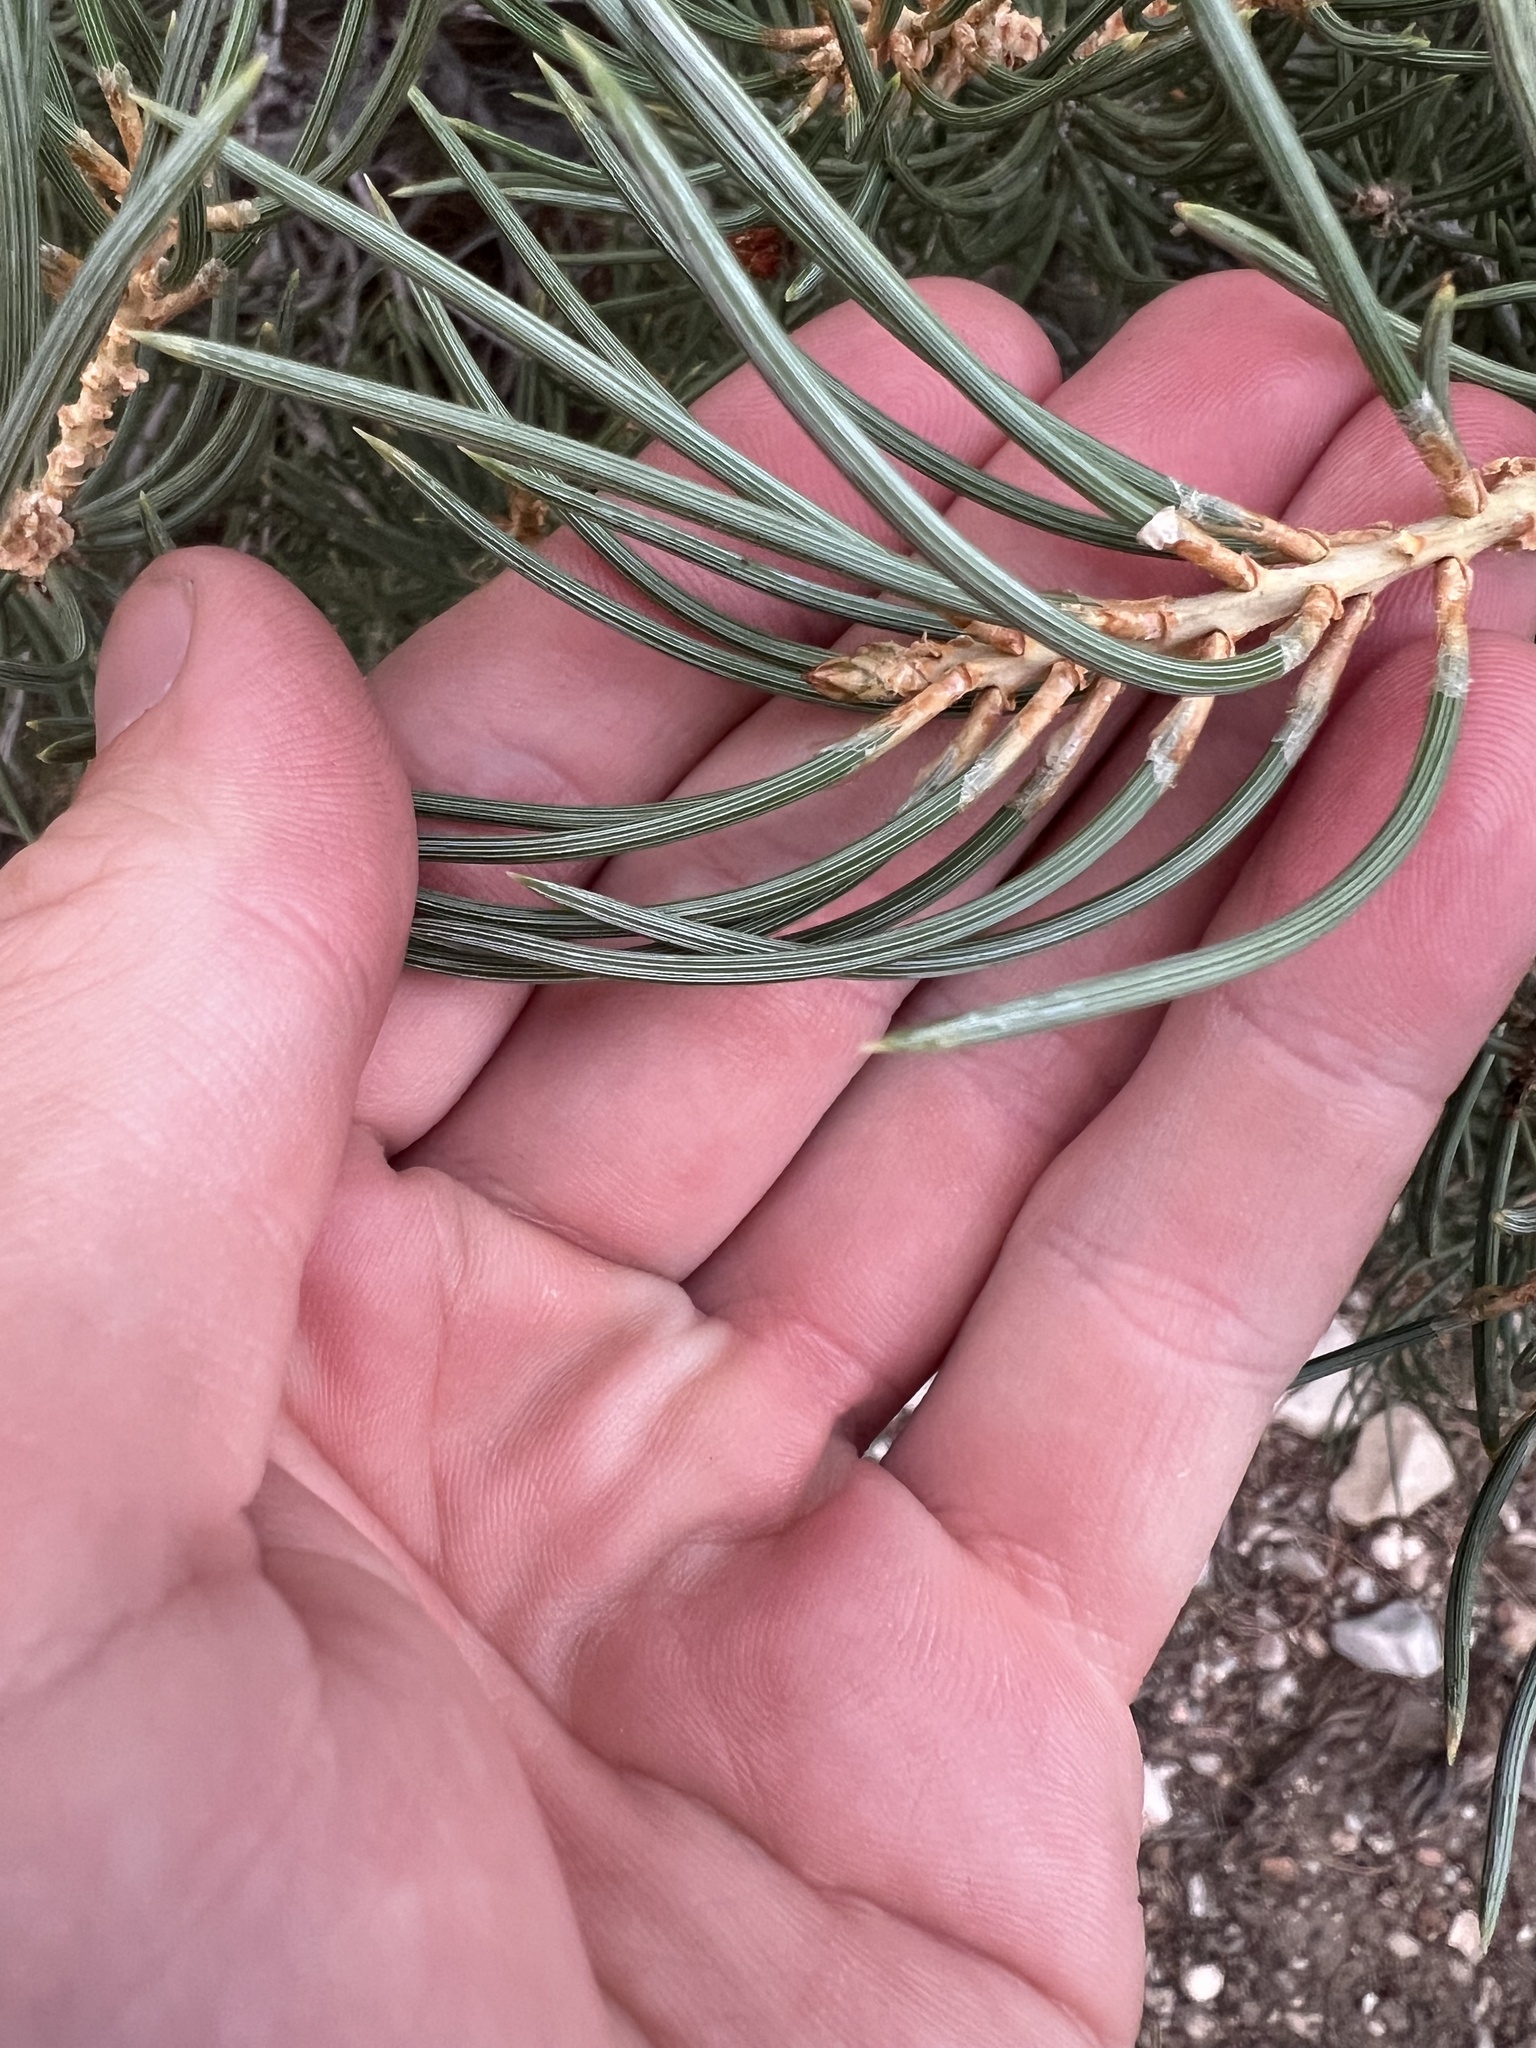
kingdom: Plantae
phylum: Tracheophyta
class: Pinopsida
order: Pinales
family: Pinaceae
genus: Pinus
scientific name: Pinus monophylla
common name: One-leaved nut pine
